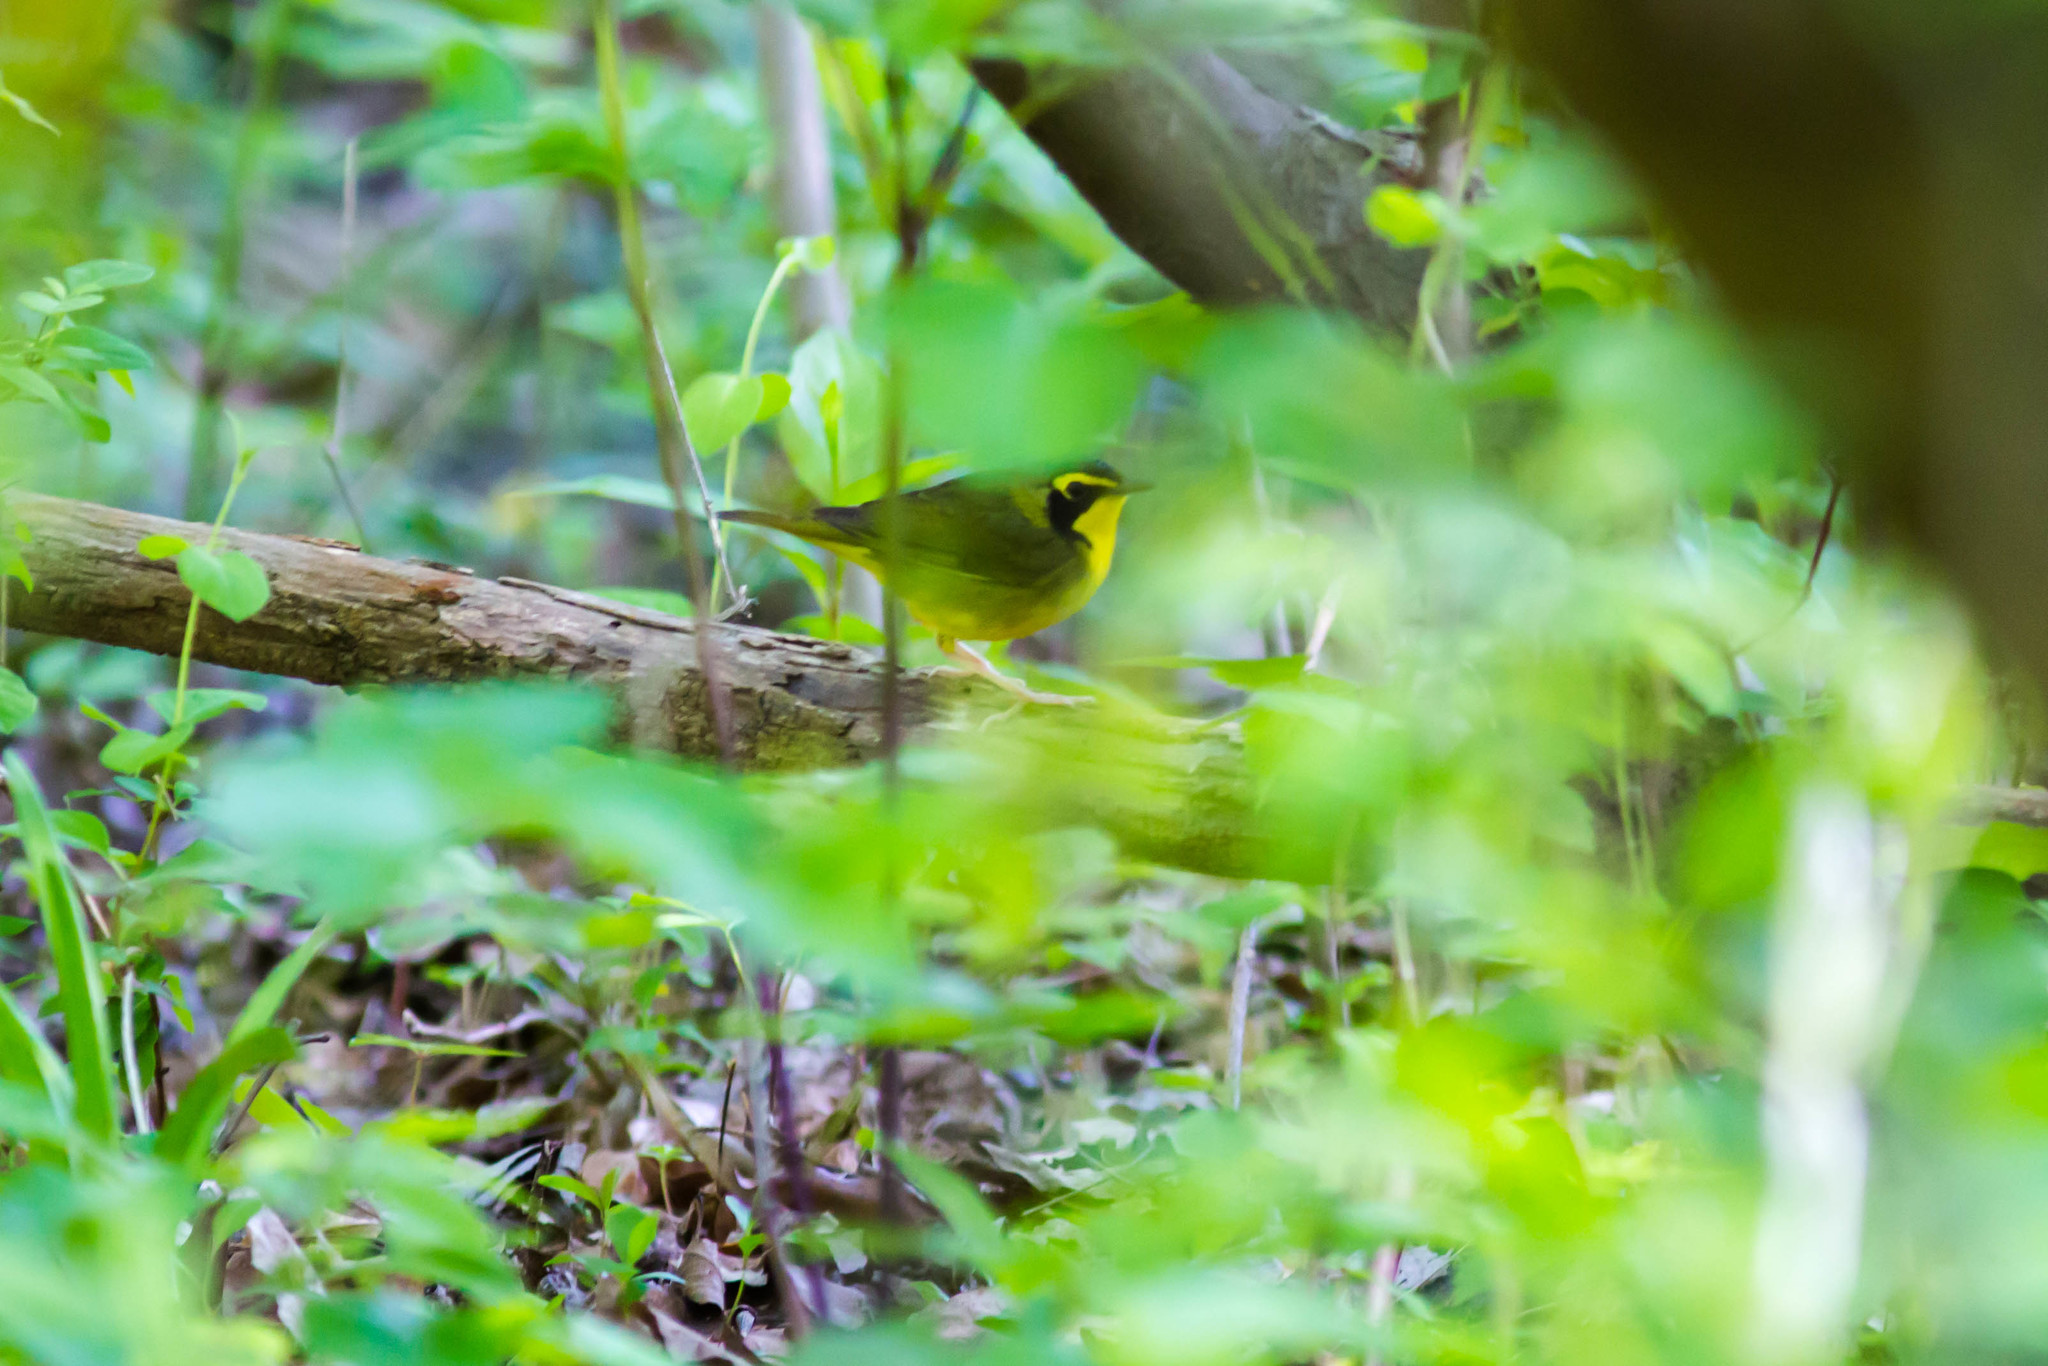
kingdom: Animalia
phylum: Chordata
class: Aves
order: Passeriformes
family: Parulidae
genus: Geothlypis
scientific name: Geothlypis formosa
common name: Kentucky warbler
